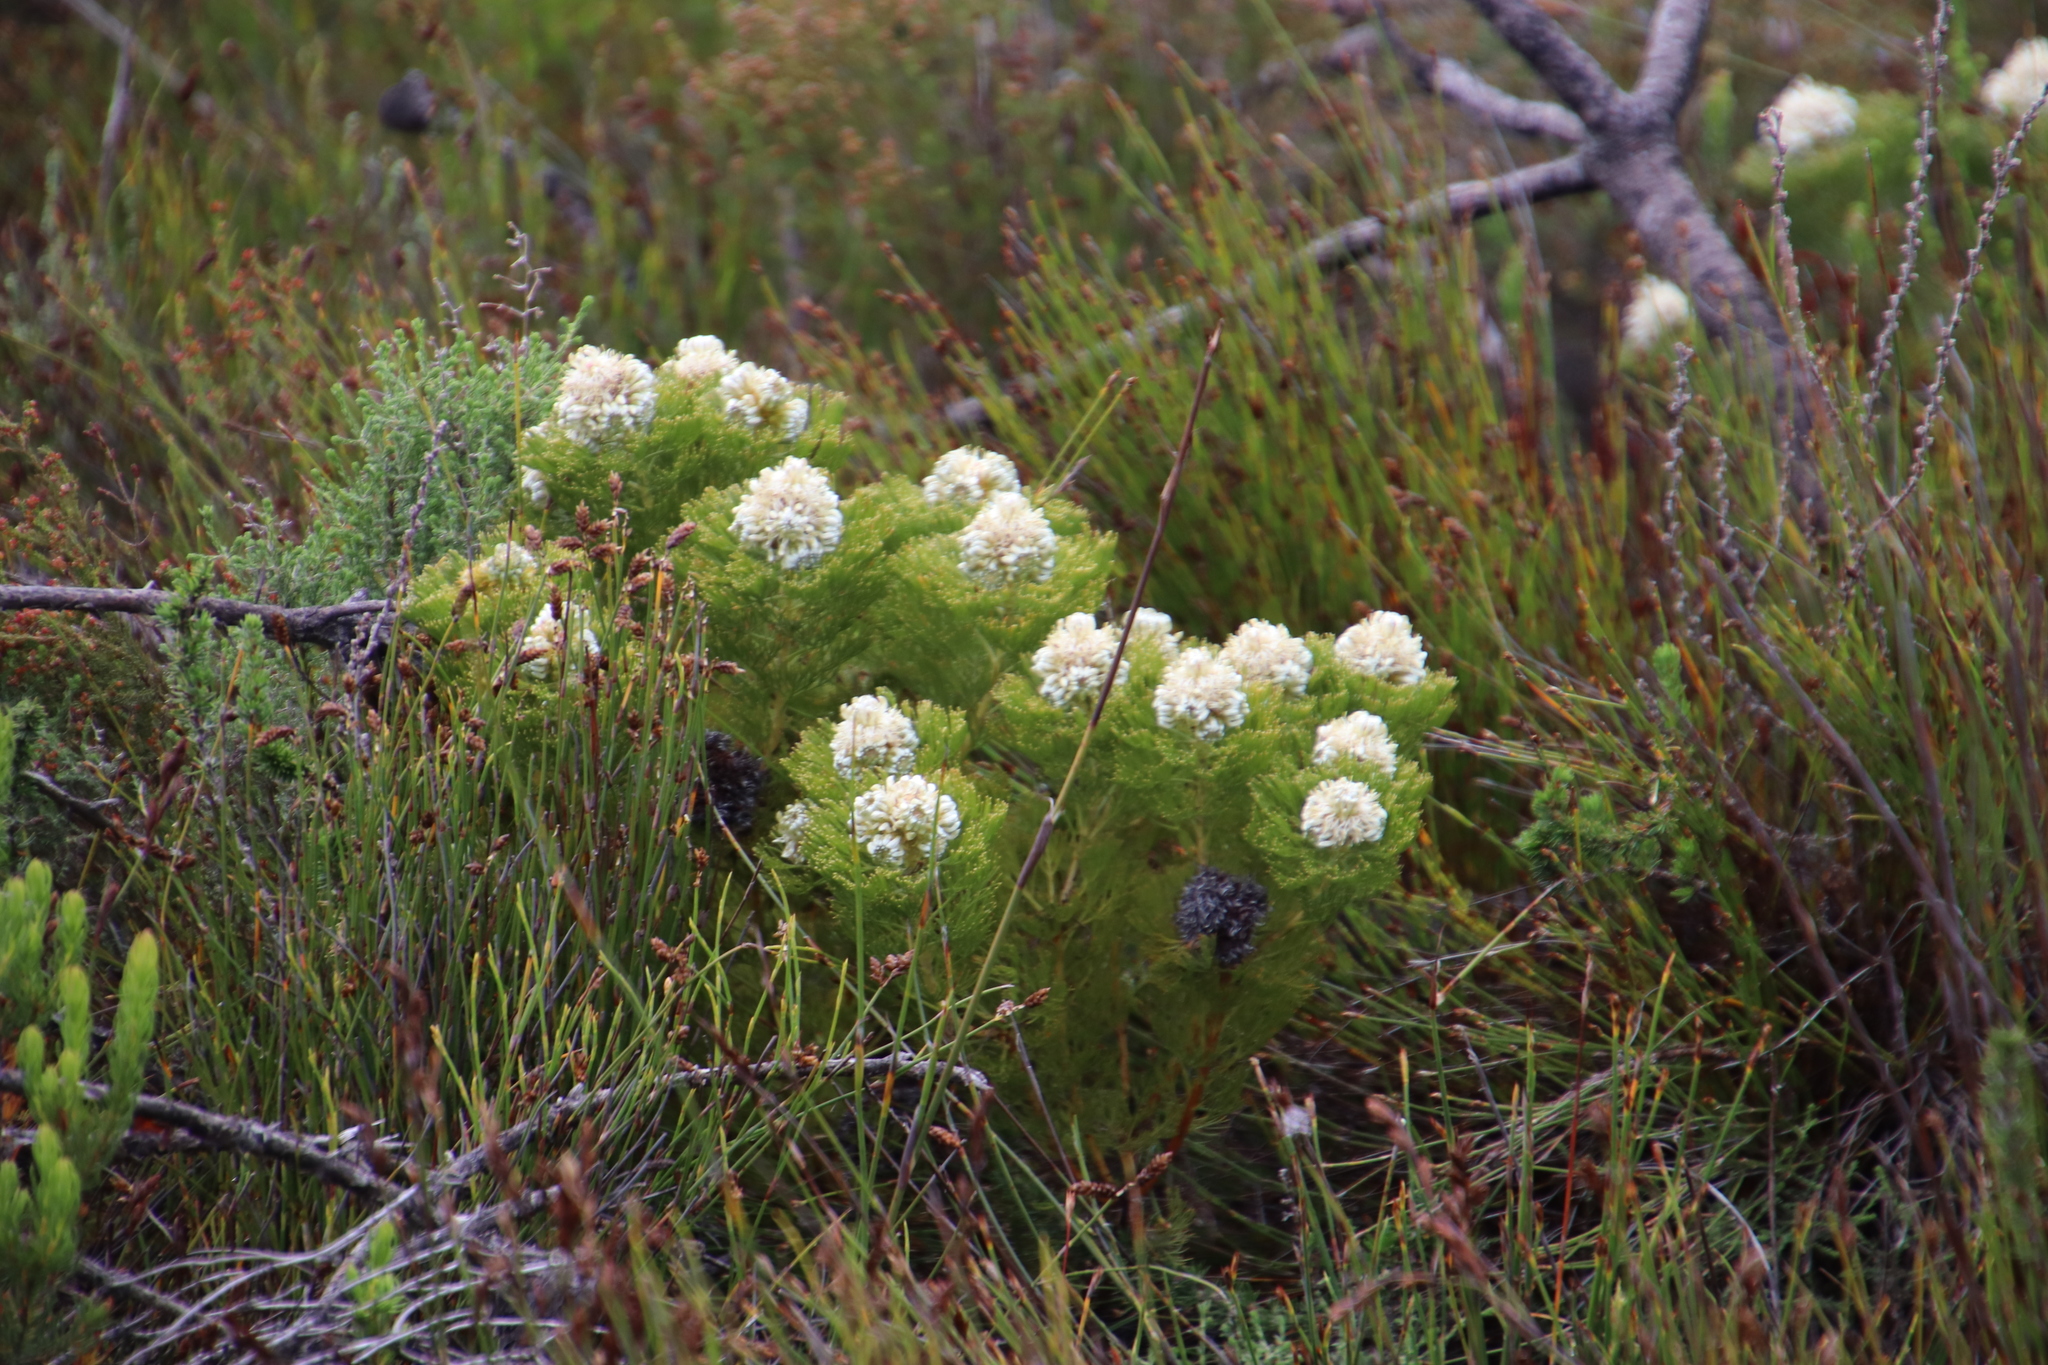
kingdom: Plantae
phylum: Tracheophyta
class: Magnoliopsida
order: Proteales
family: Proteaceae
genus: Serruria
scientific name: Serruria glomerata
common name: Cluster spiderhead
